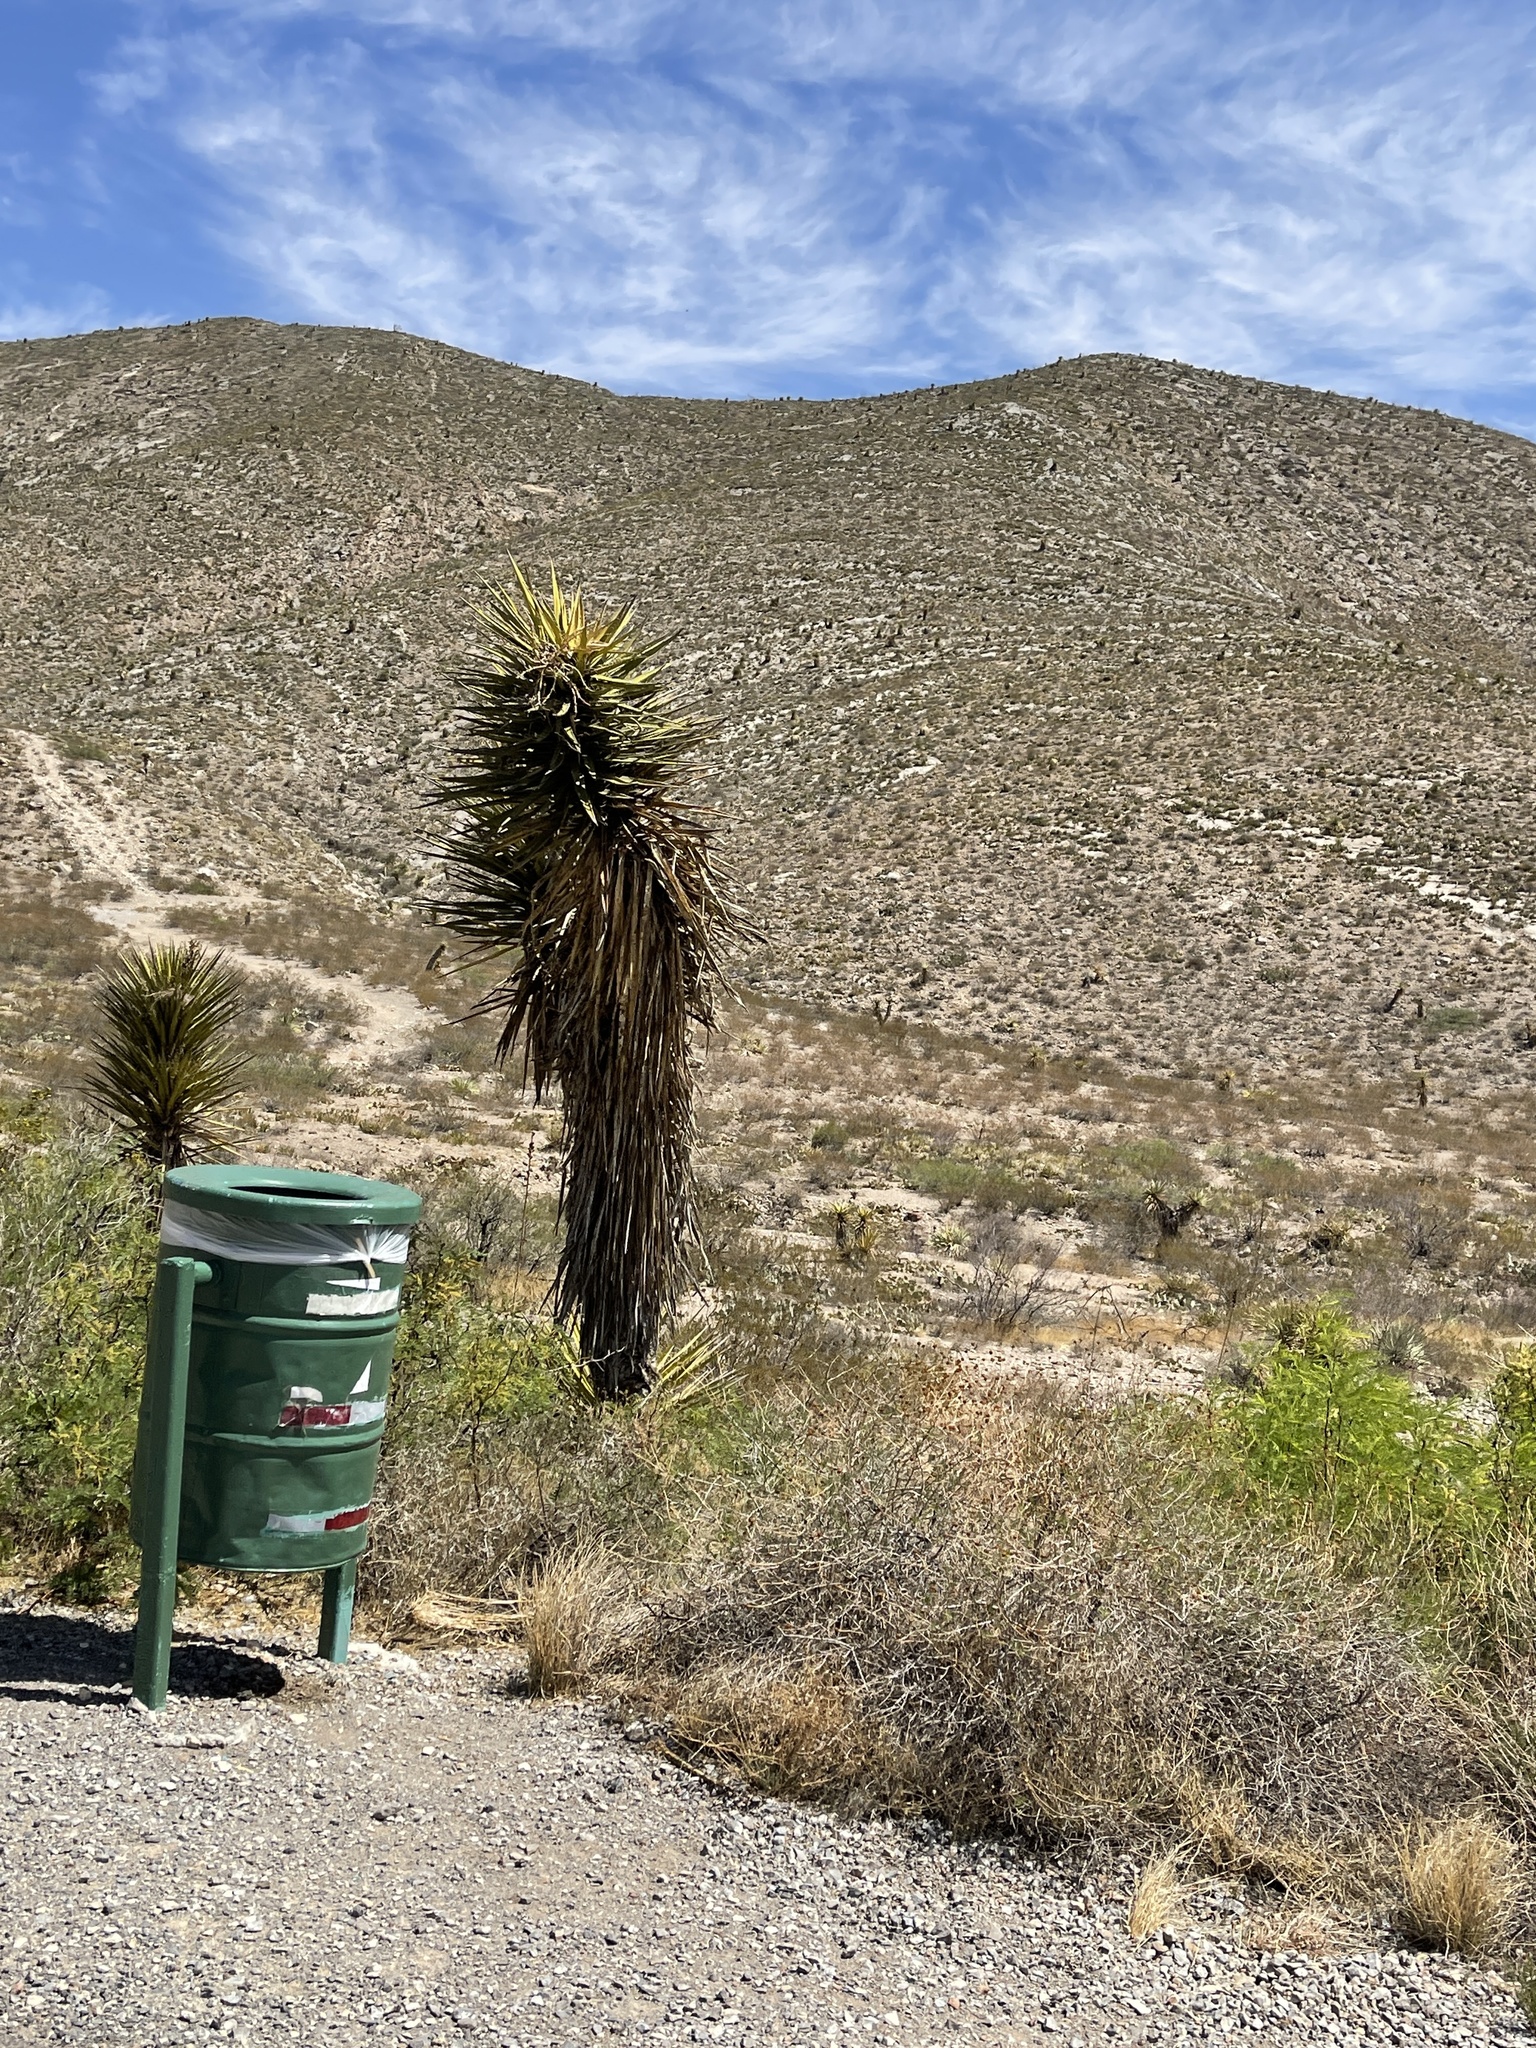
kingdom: Plantae
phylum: Tracheophyta
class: Liliopsida
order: Asparagales
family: Asparagaceae
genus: Yucca
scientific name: Yucca treculiana
